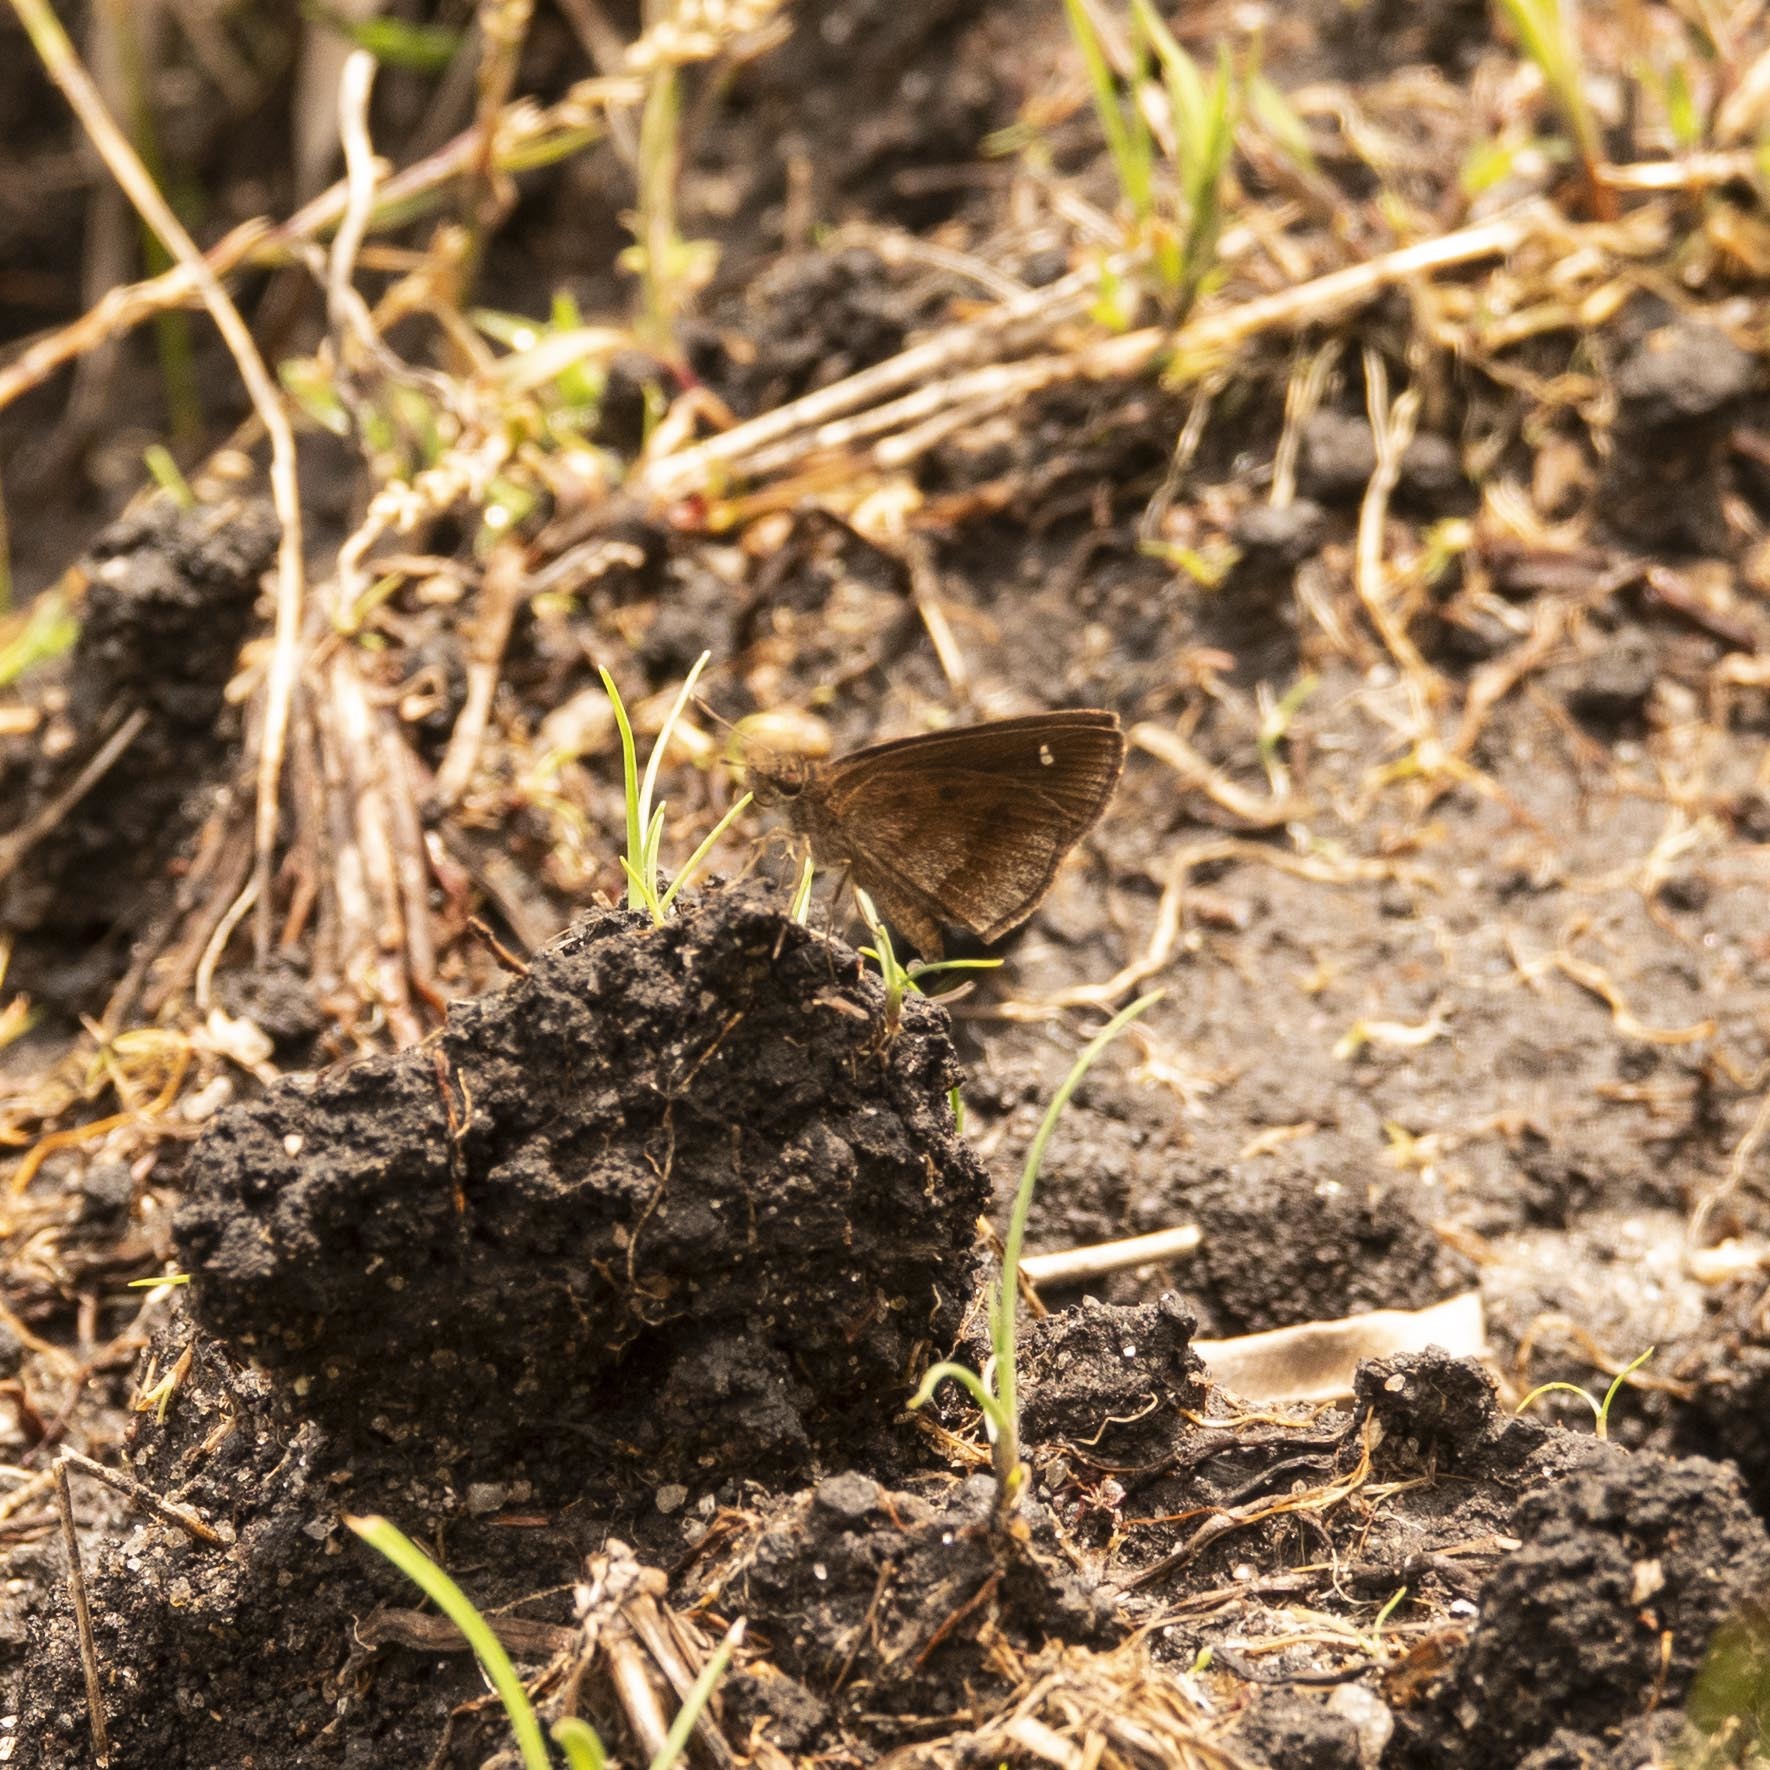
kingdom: Animalia
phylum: Arthropoda
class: Insecta
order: Lepidoptera
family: Hesperiidae
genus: Arnetta
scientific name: Arnetta mercara
